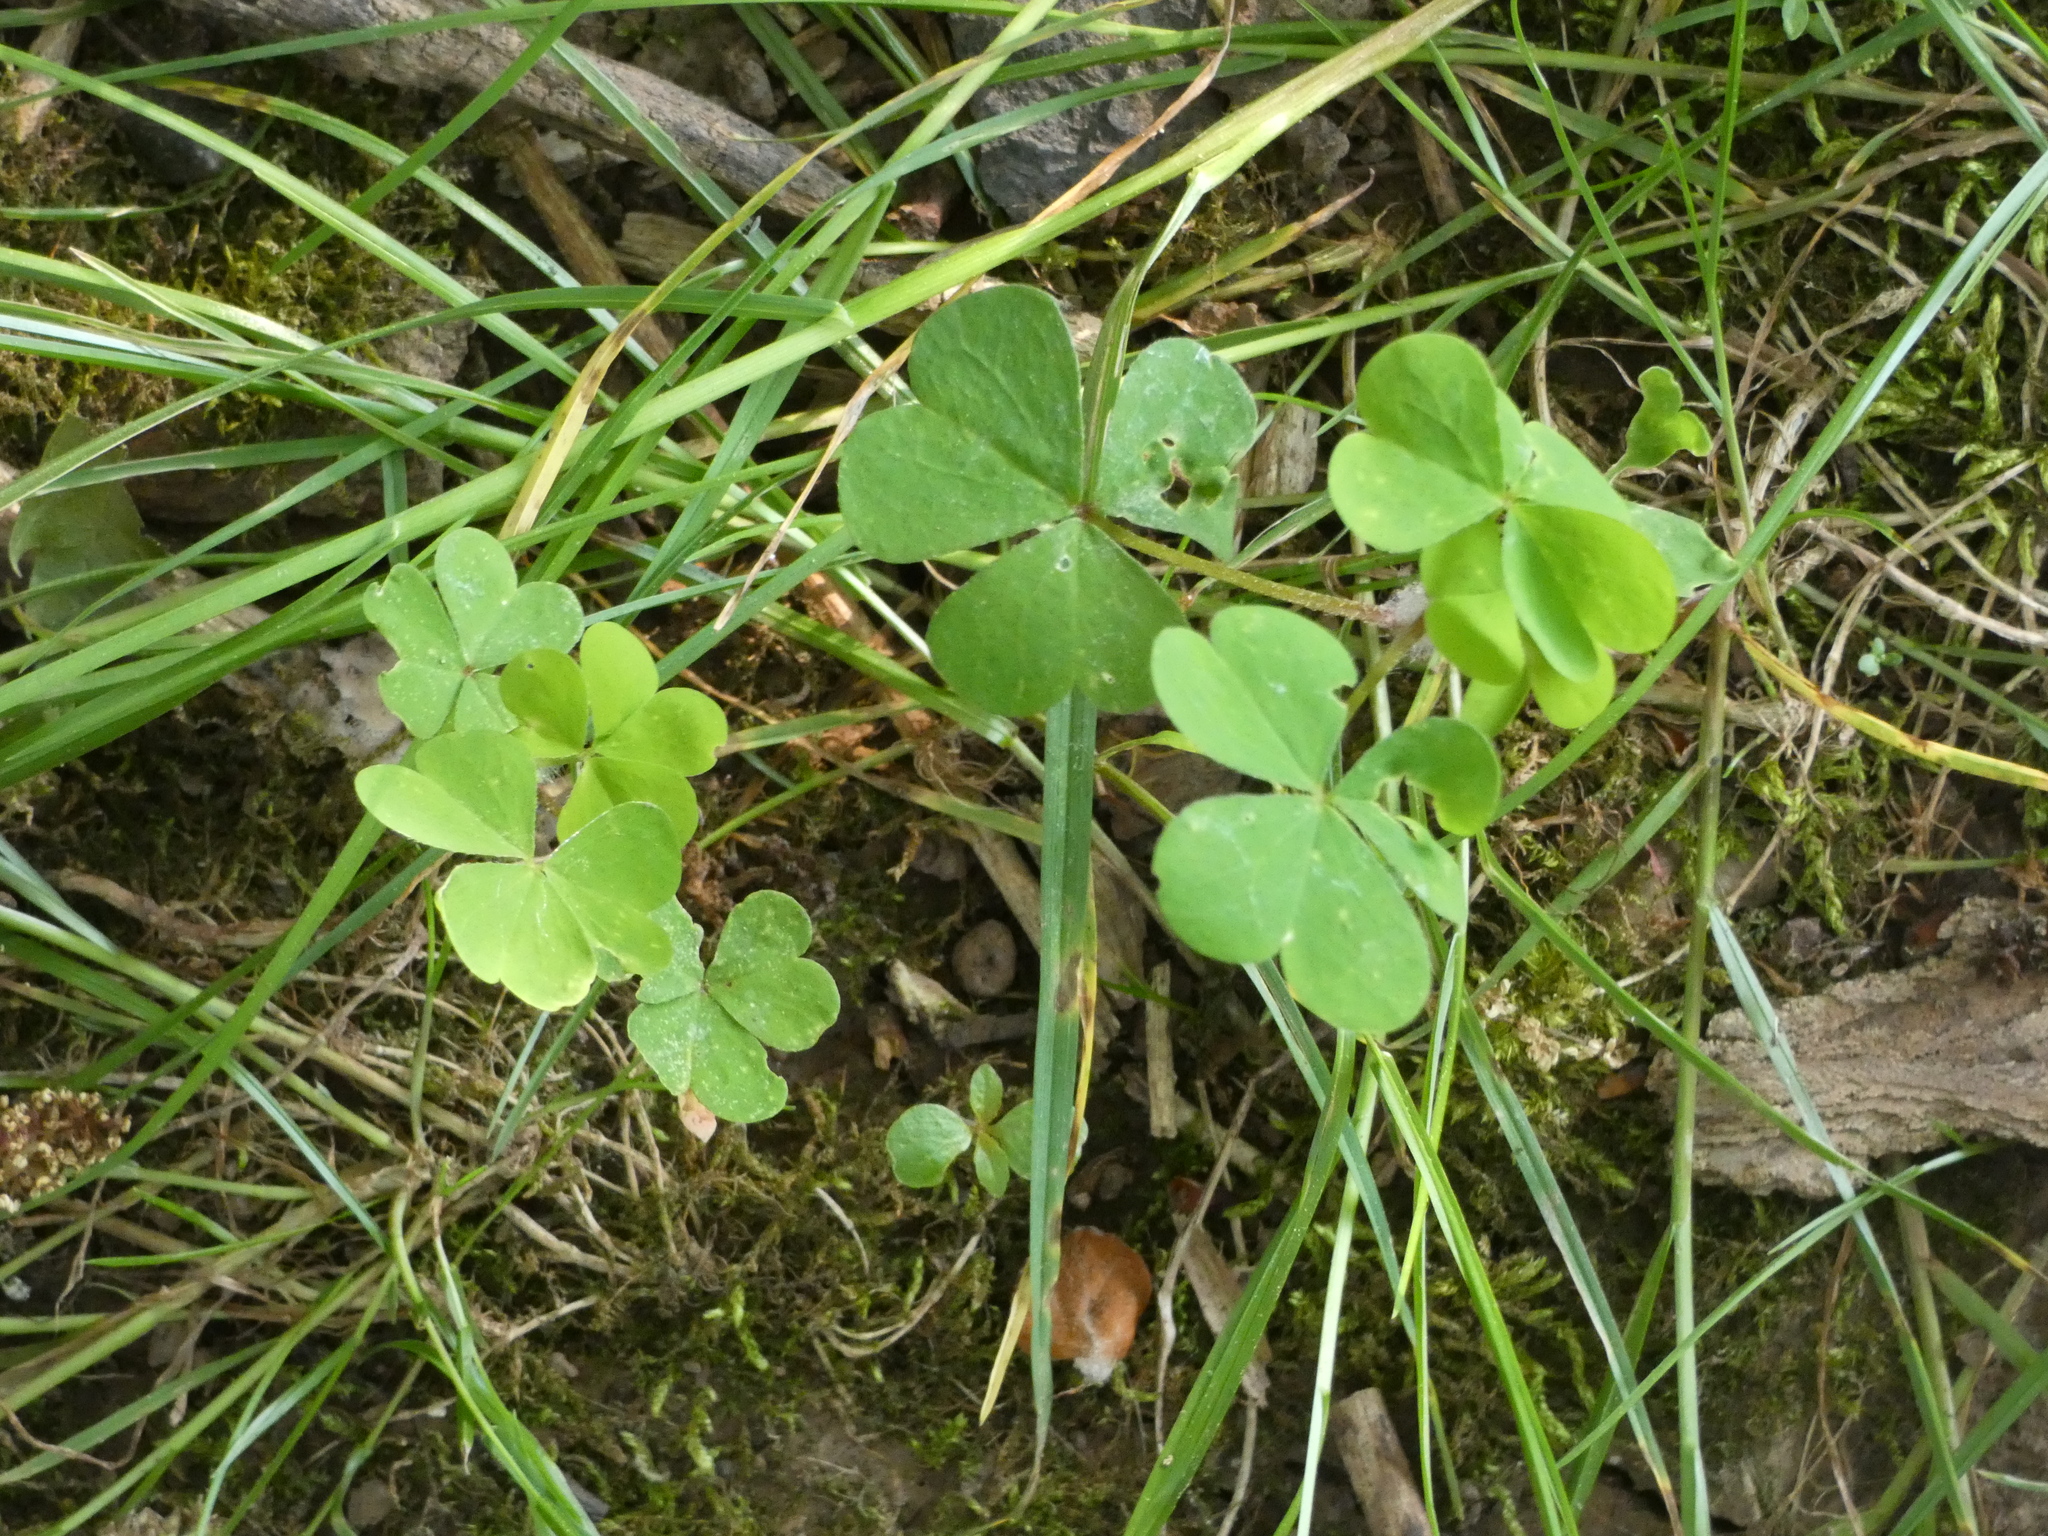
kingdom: Plantae
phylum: Tracheophyta
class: Magnoliopsida
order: Oxalidales
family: Oxalidaceae
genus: Oxalis
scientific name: Oxalis stricta
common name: Upright yellow-sorrel
